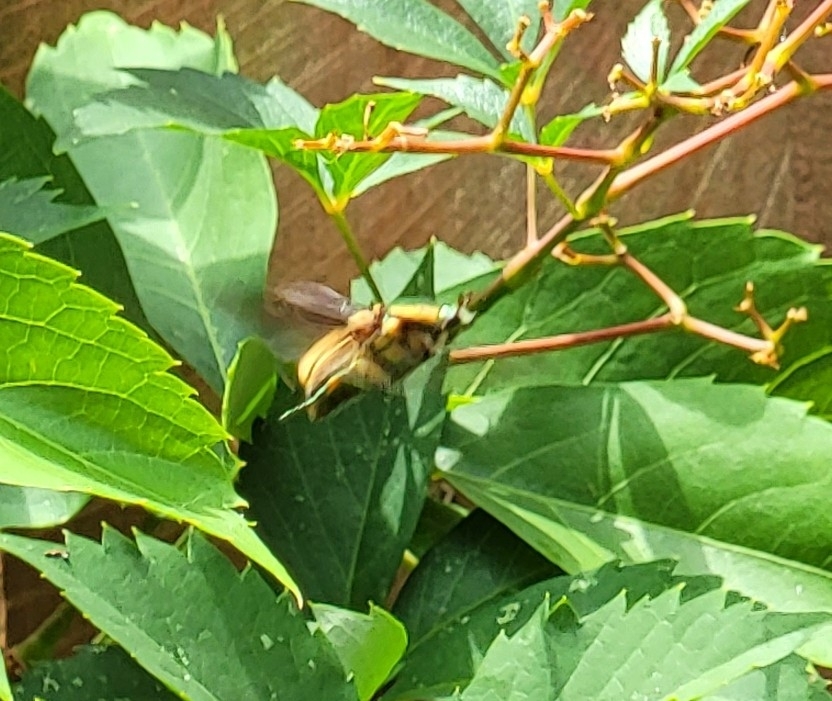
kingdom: Animalia
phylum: Arthropoda
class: Insecta
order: Coleoptera
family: Scarabaeidae
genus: Cotinis
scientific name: Cotinis nitida
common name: Common green june beetle
